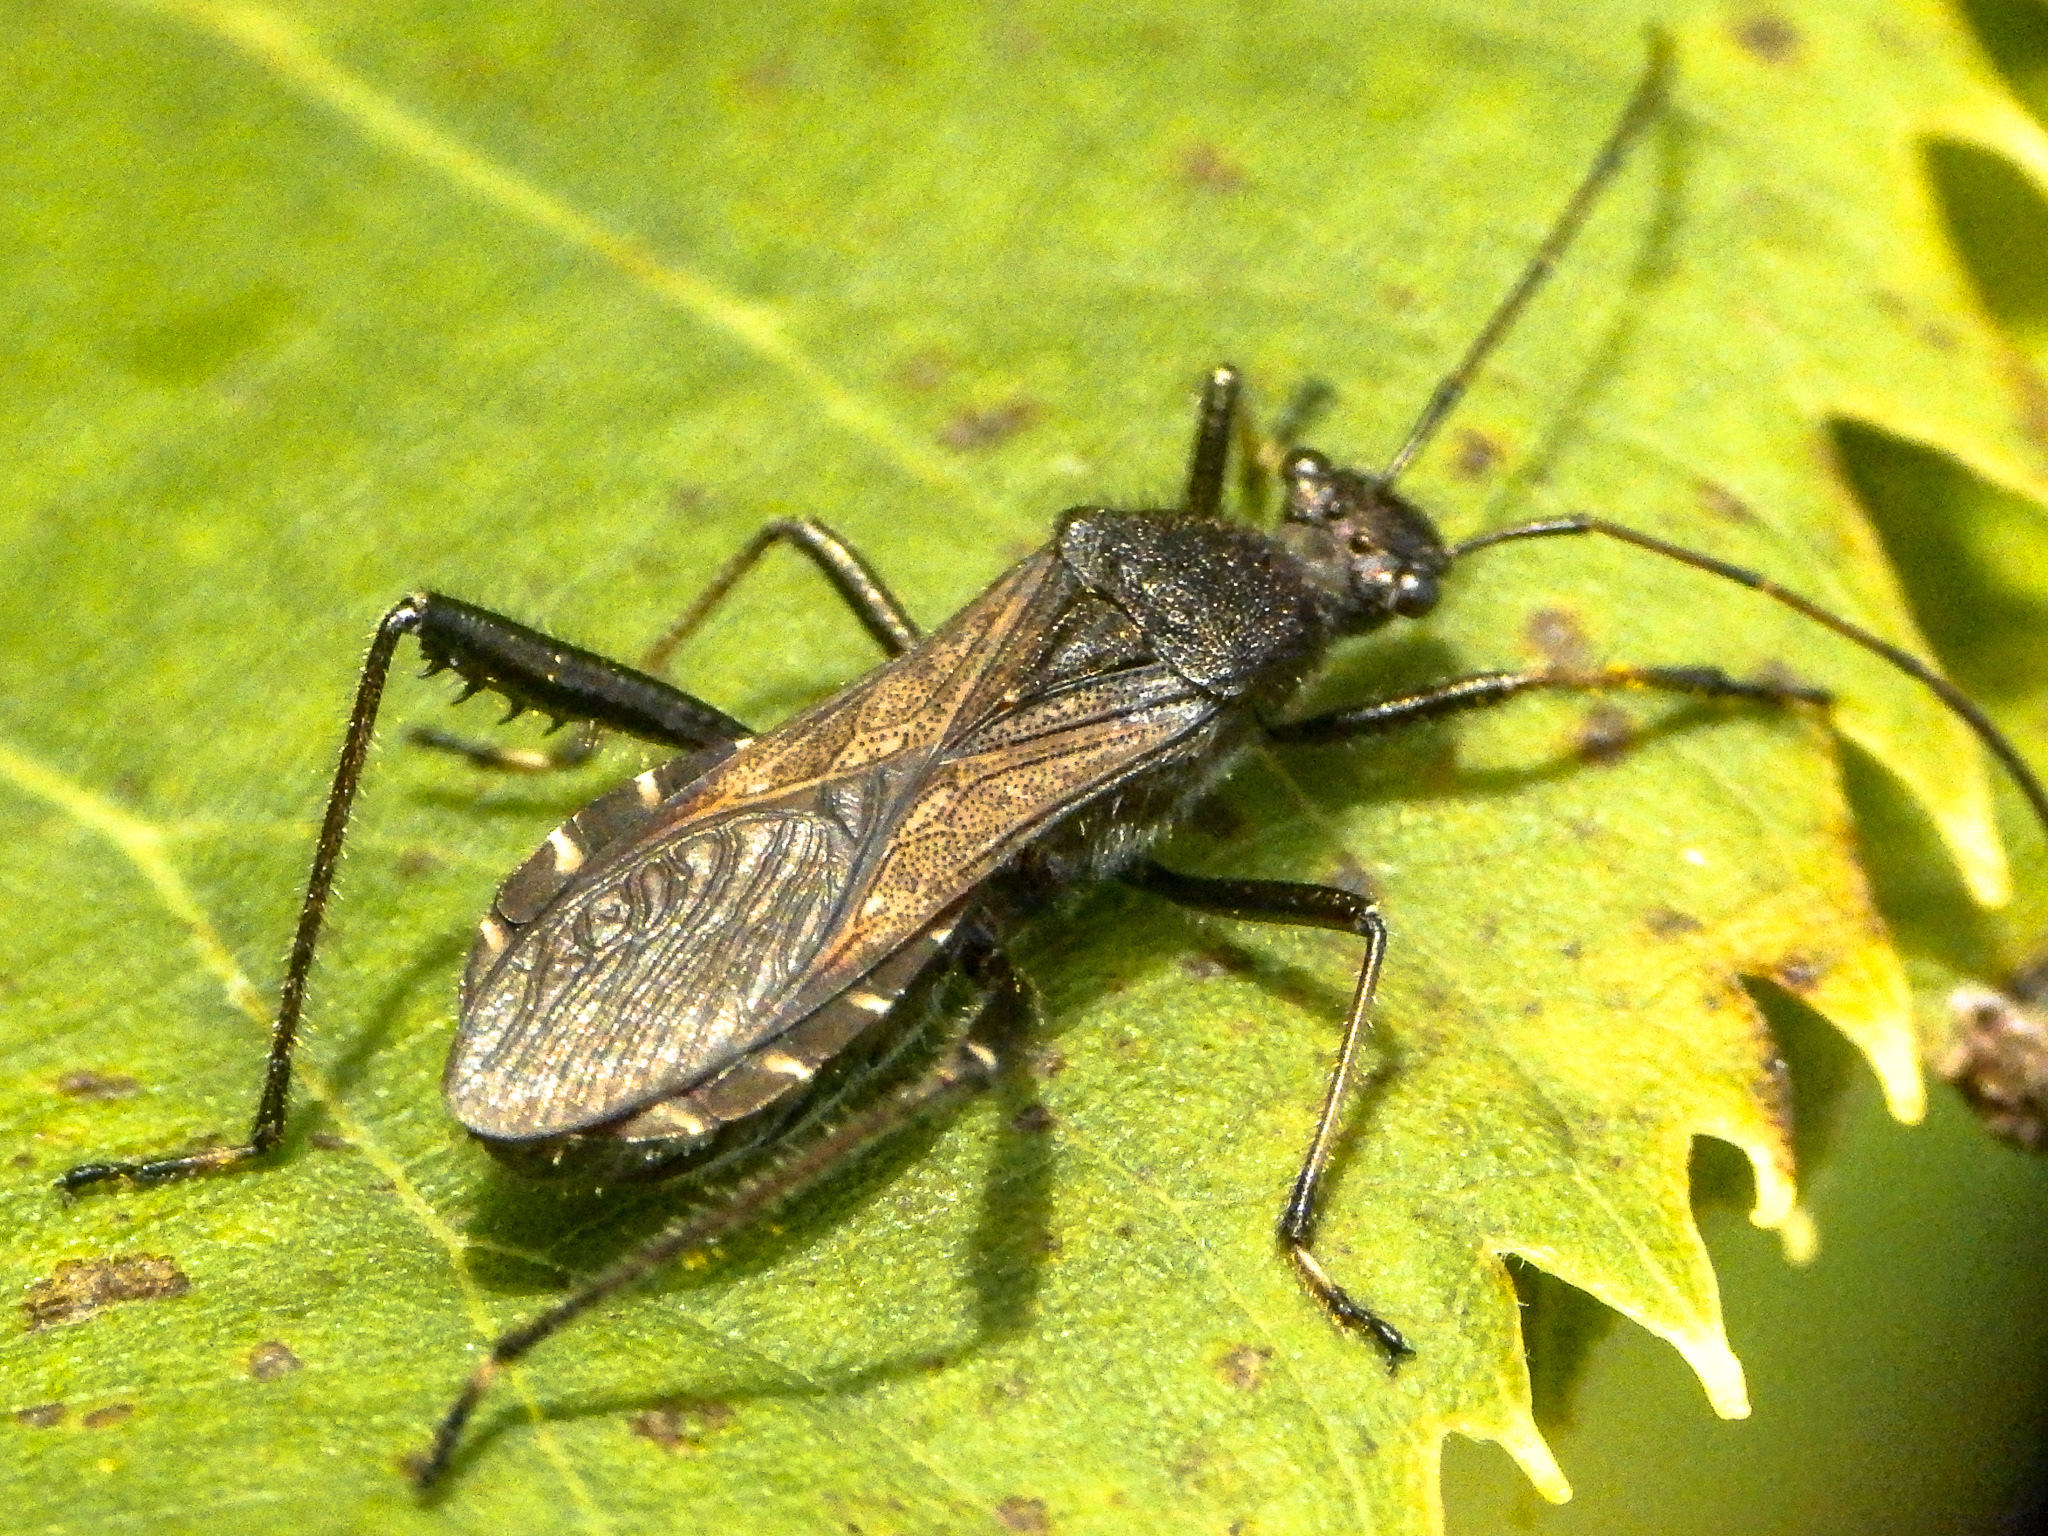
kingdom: Animalia
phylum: Arthropoda
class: Insecta
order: Hemiptera
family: Alydidae
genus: Alydus
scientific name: Alydus eurinus
